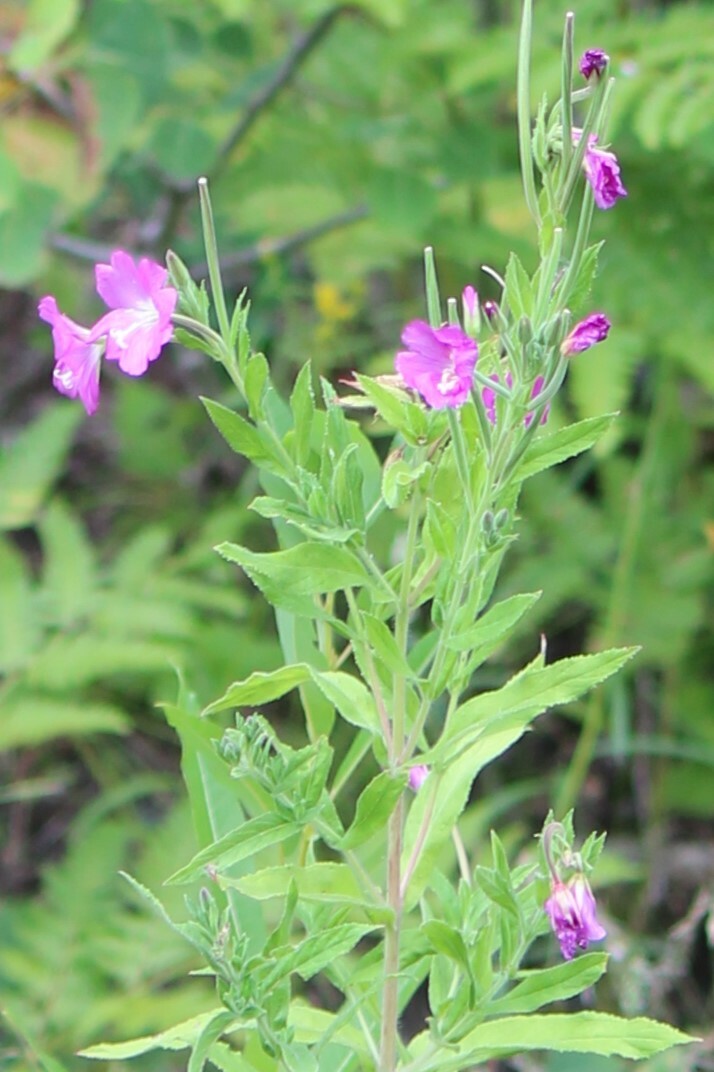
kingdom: Plantae
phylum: Tracheophyta
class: Magnoliopsida
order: Myrtales
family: Onagraceae
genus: Epilobium
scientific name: Epilobium hirsutum
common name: Great willowherb
